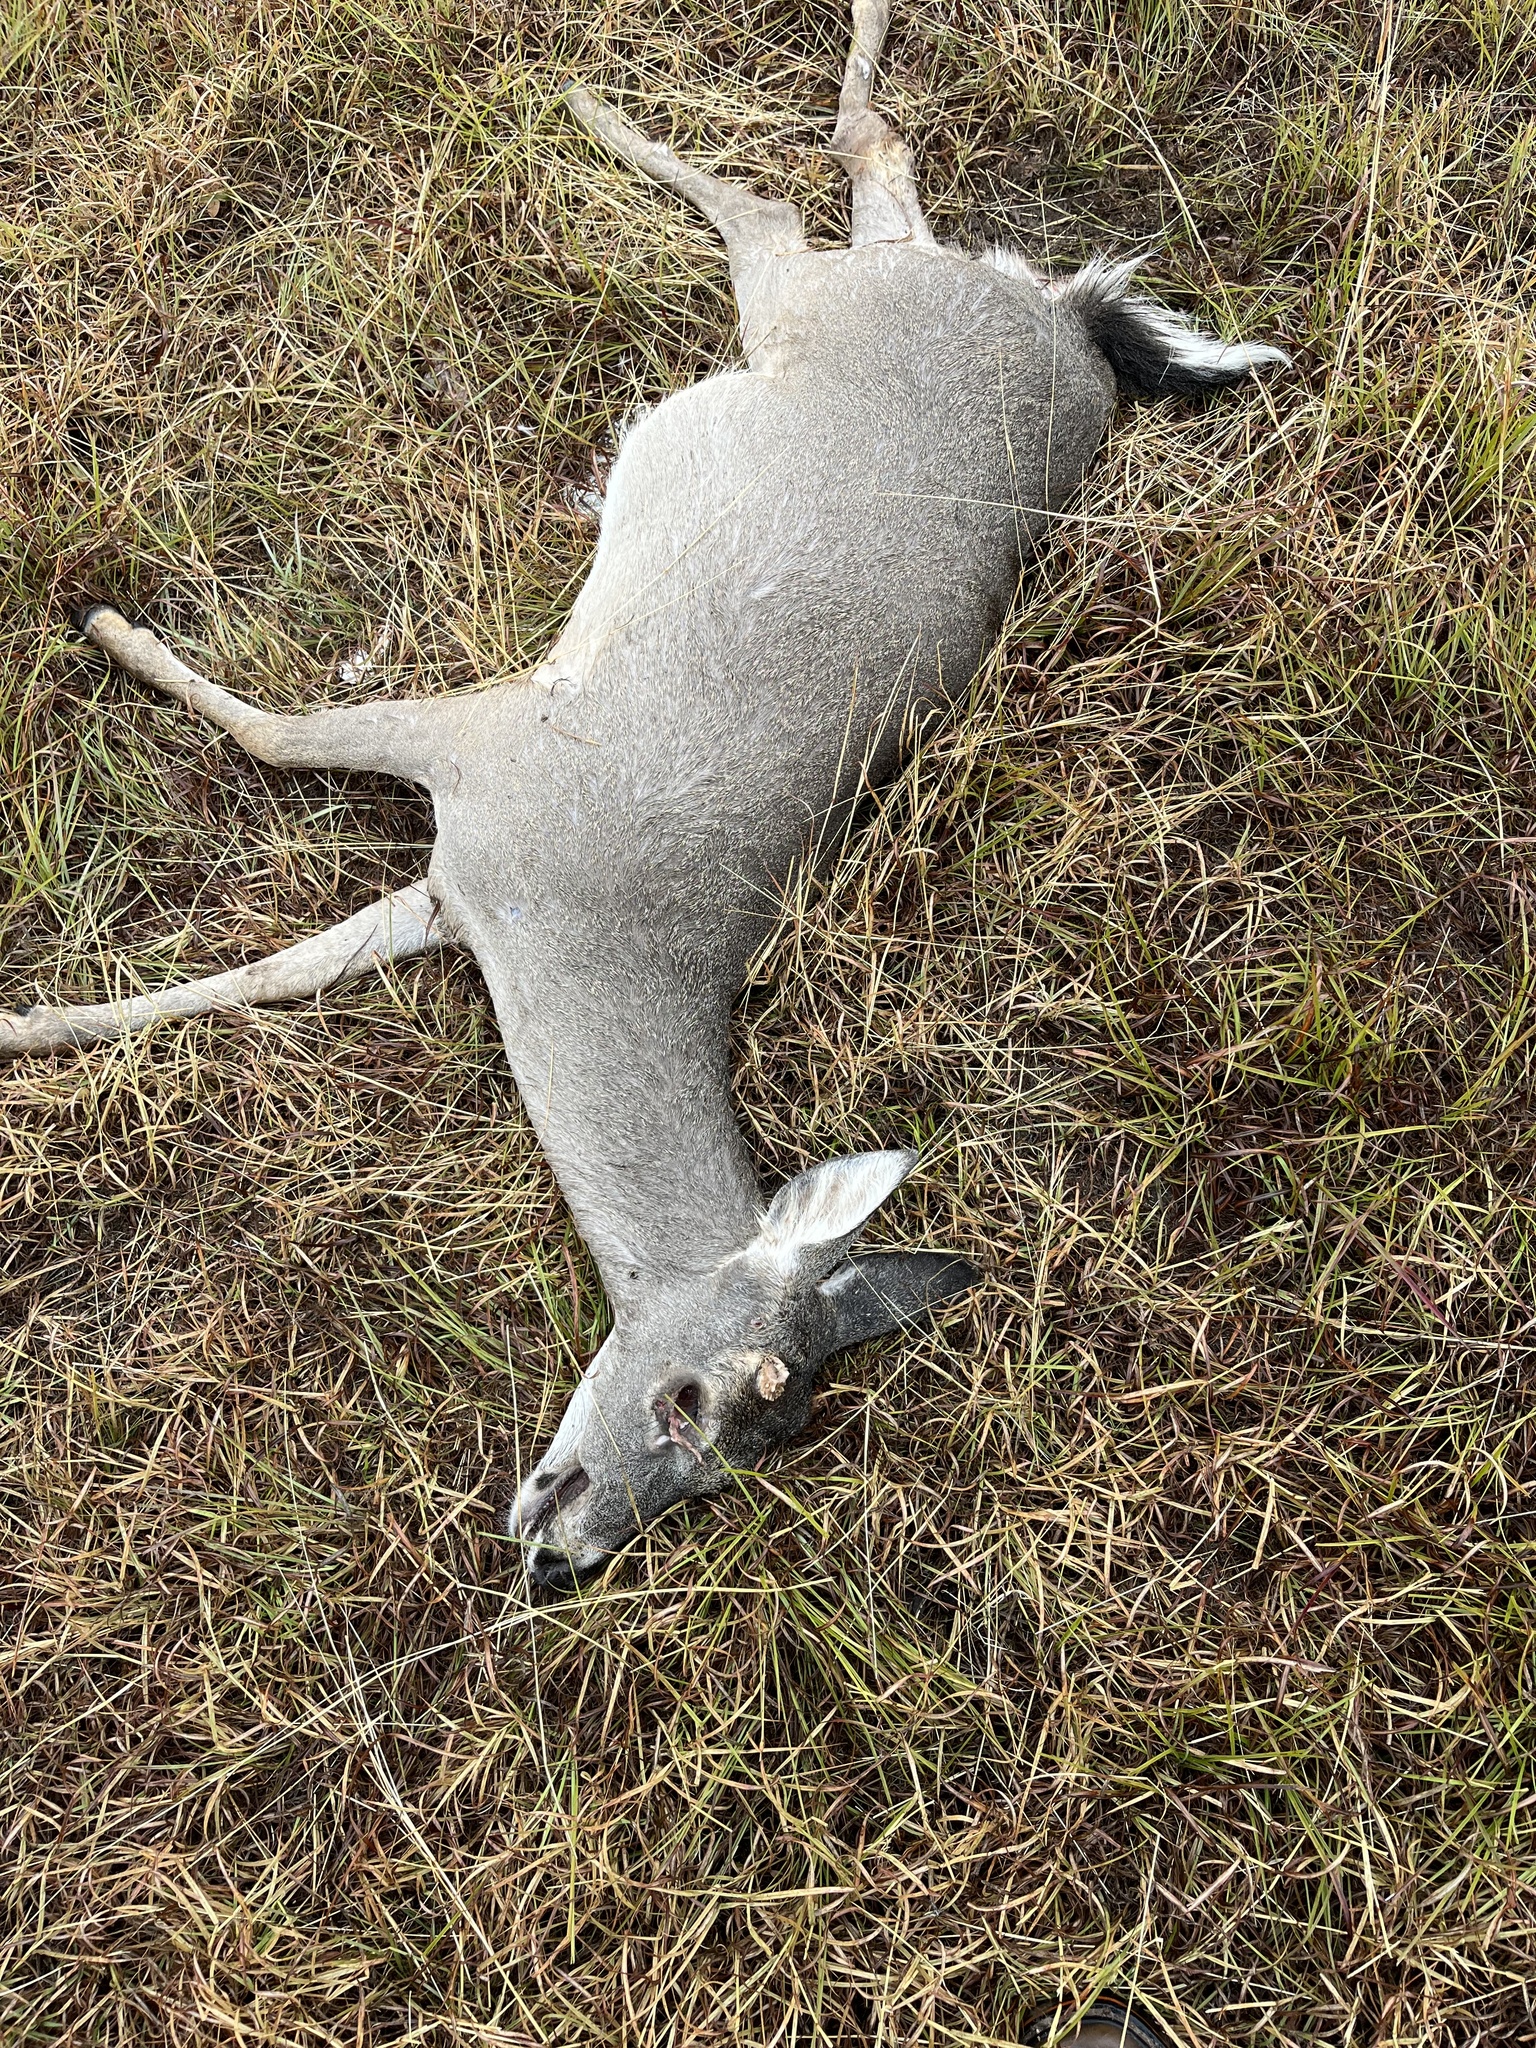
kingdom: Animalia
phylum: Chordata
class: Mammalia
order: Artiodactyla
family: Cervidae
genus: Odocoileus
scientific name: Odocoileus virginianus
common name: White-tailed deer
